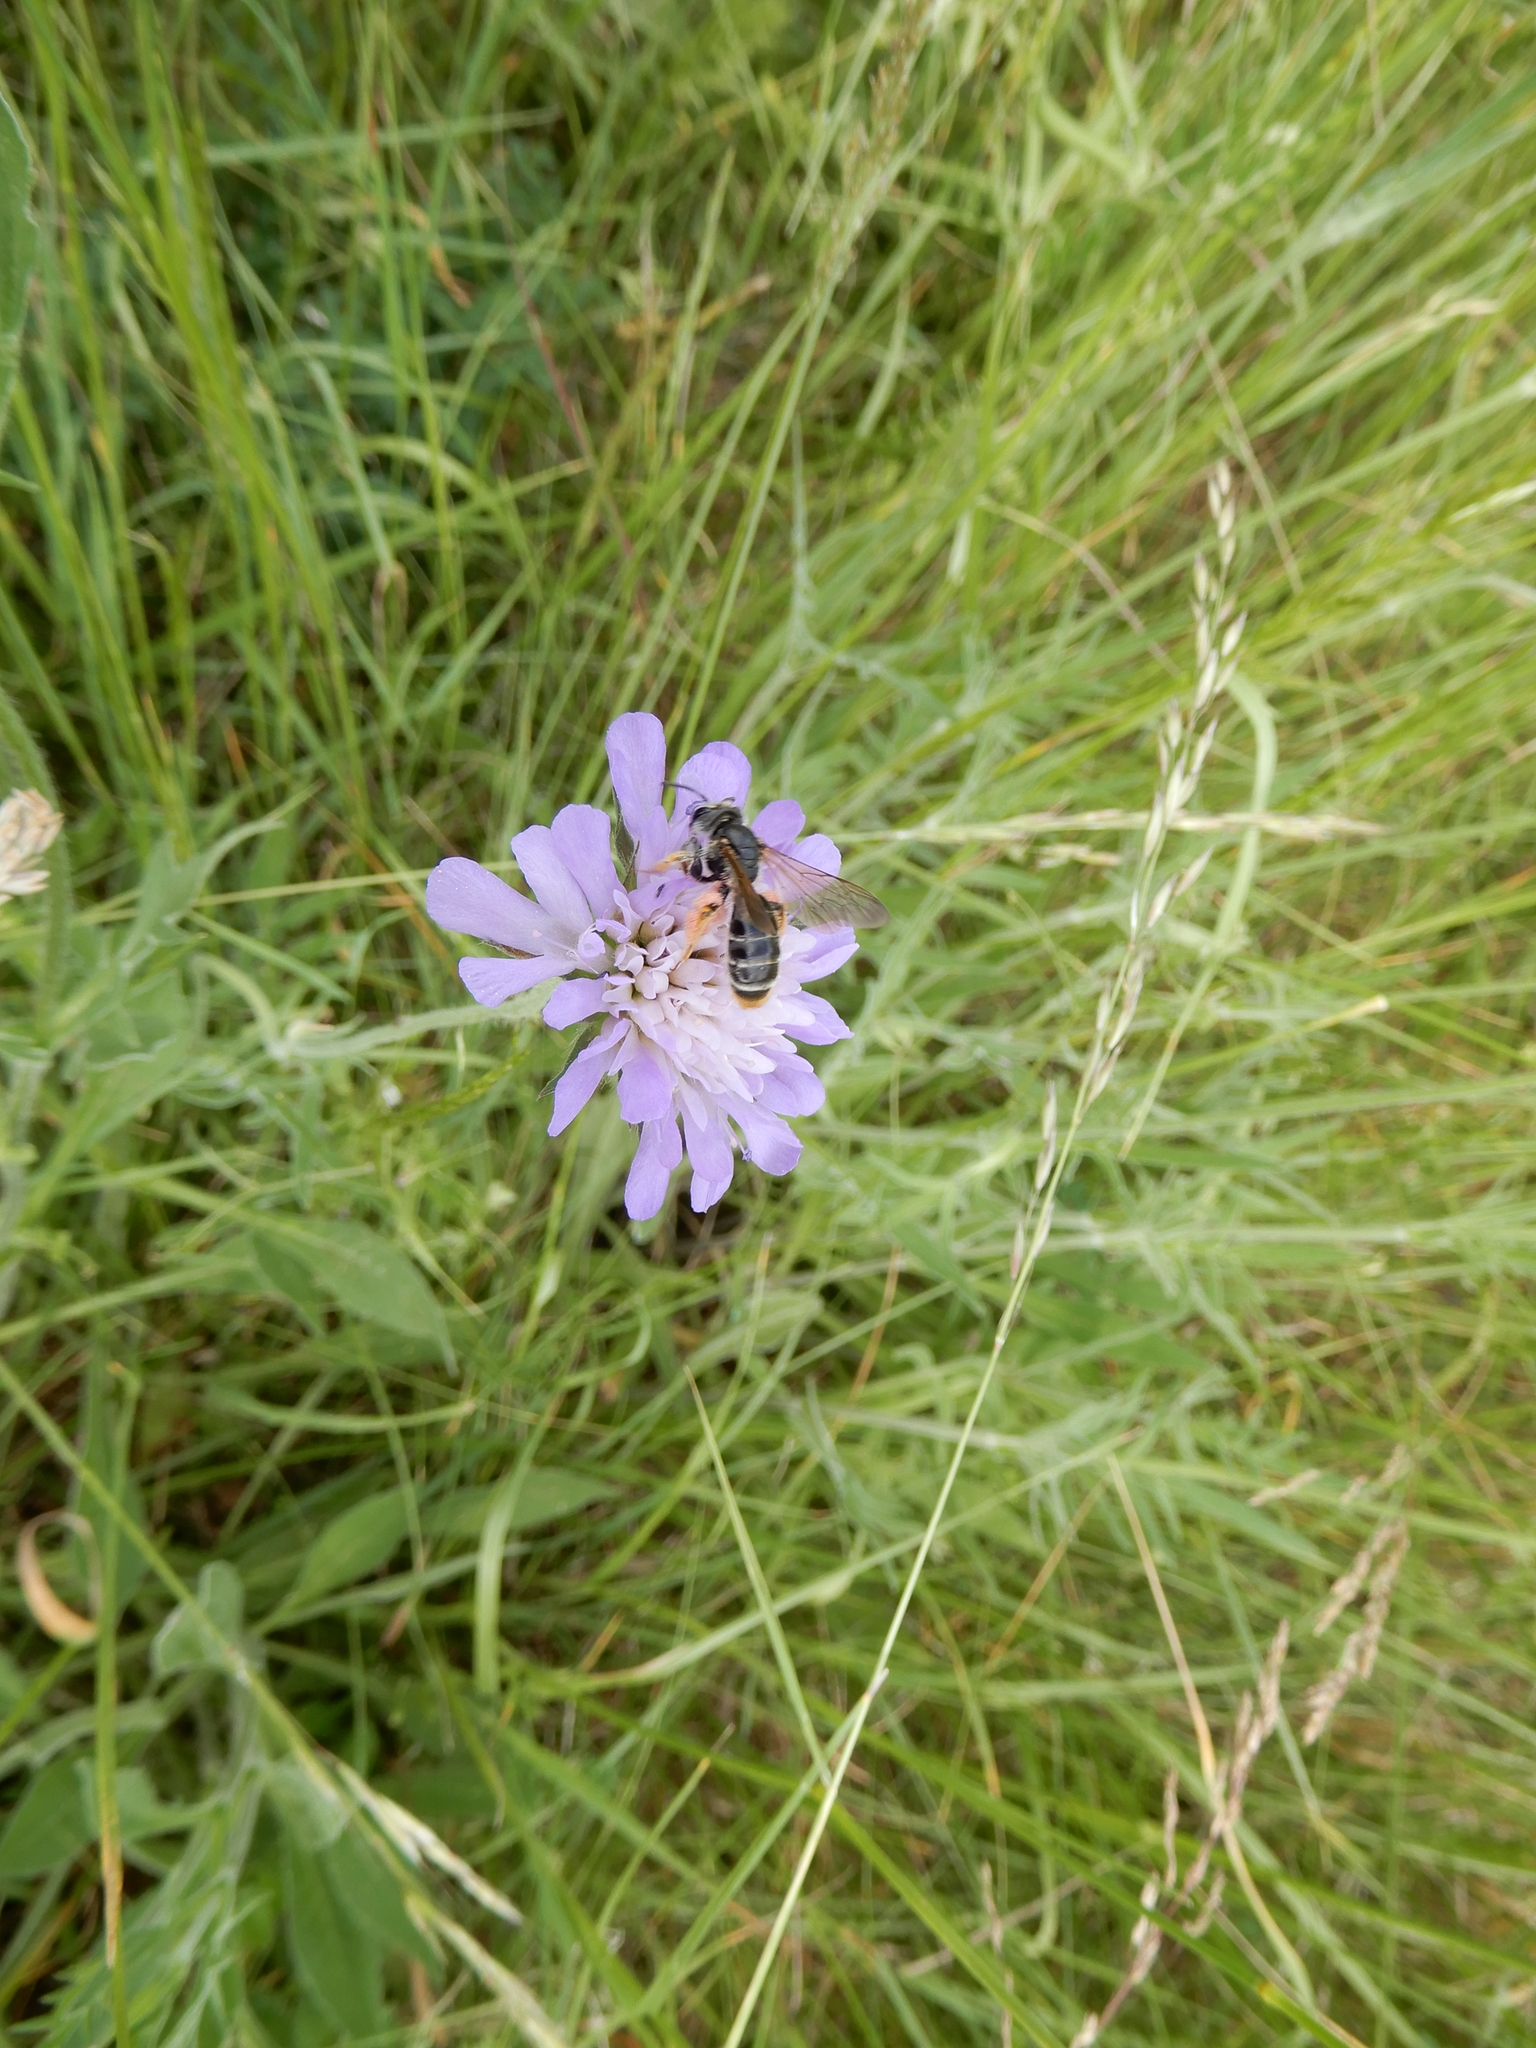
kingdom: Animalia
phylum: Arthropoda
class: Insecta
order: Hymenoptera
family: Andrenidae
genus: Andrena
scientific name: Andrena hattorfiana
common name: Large scabious mining bee
